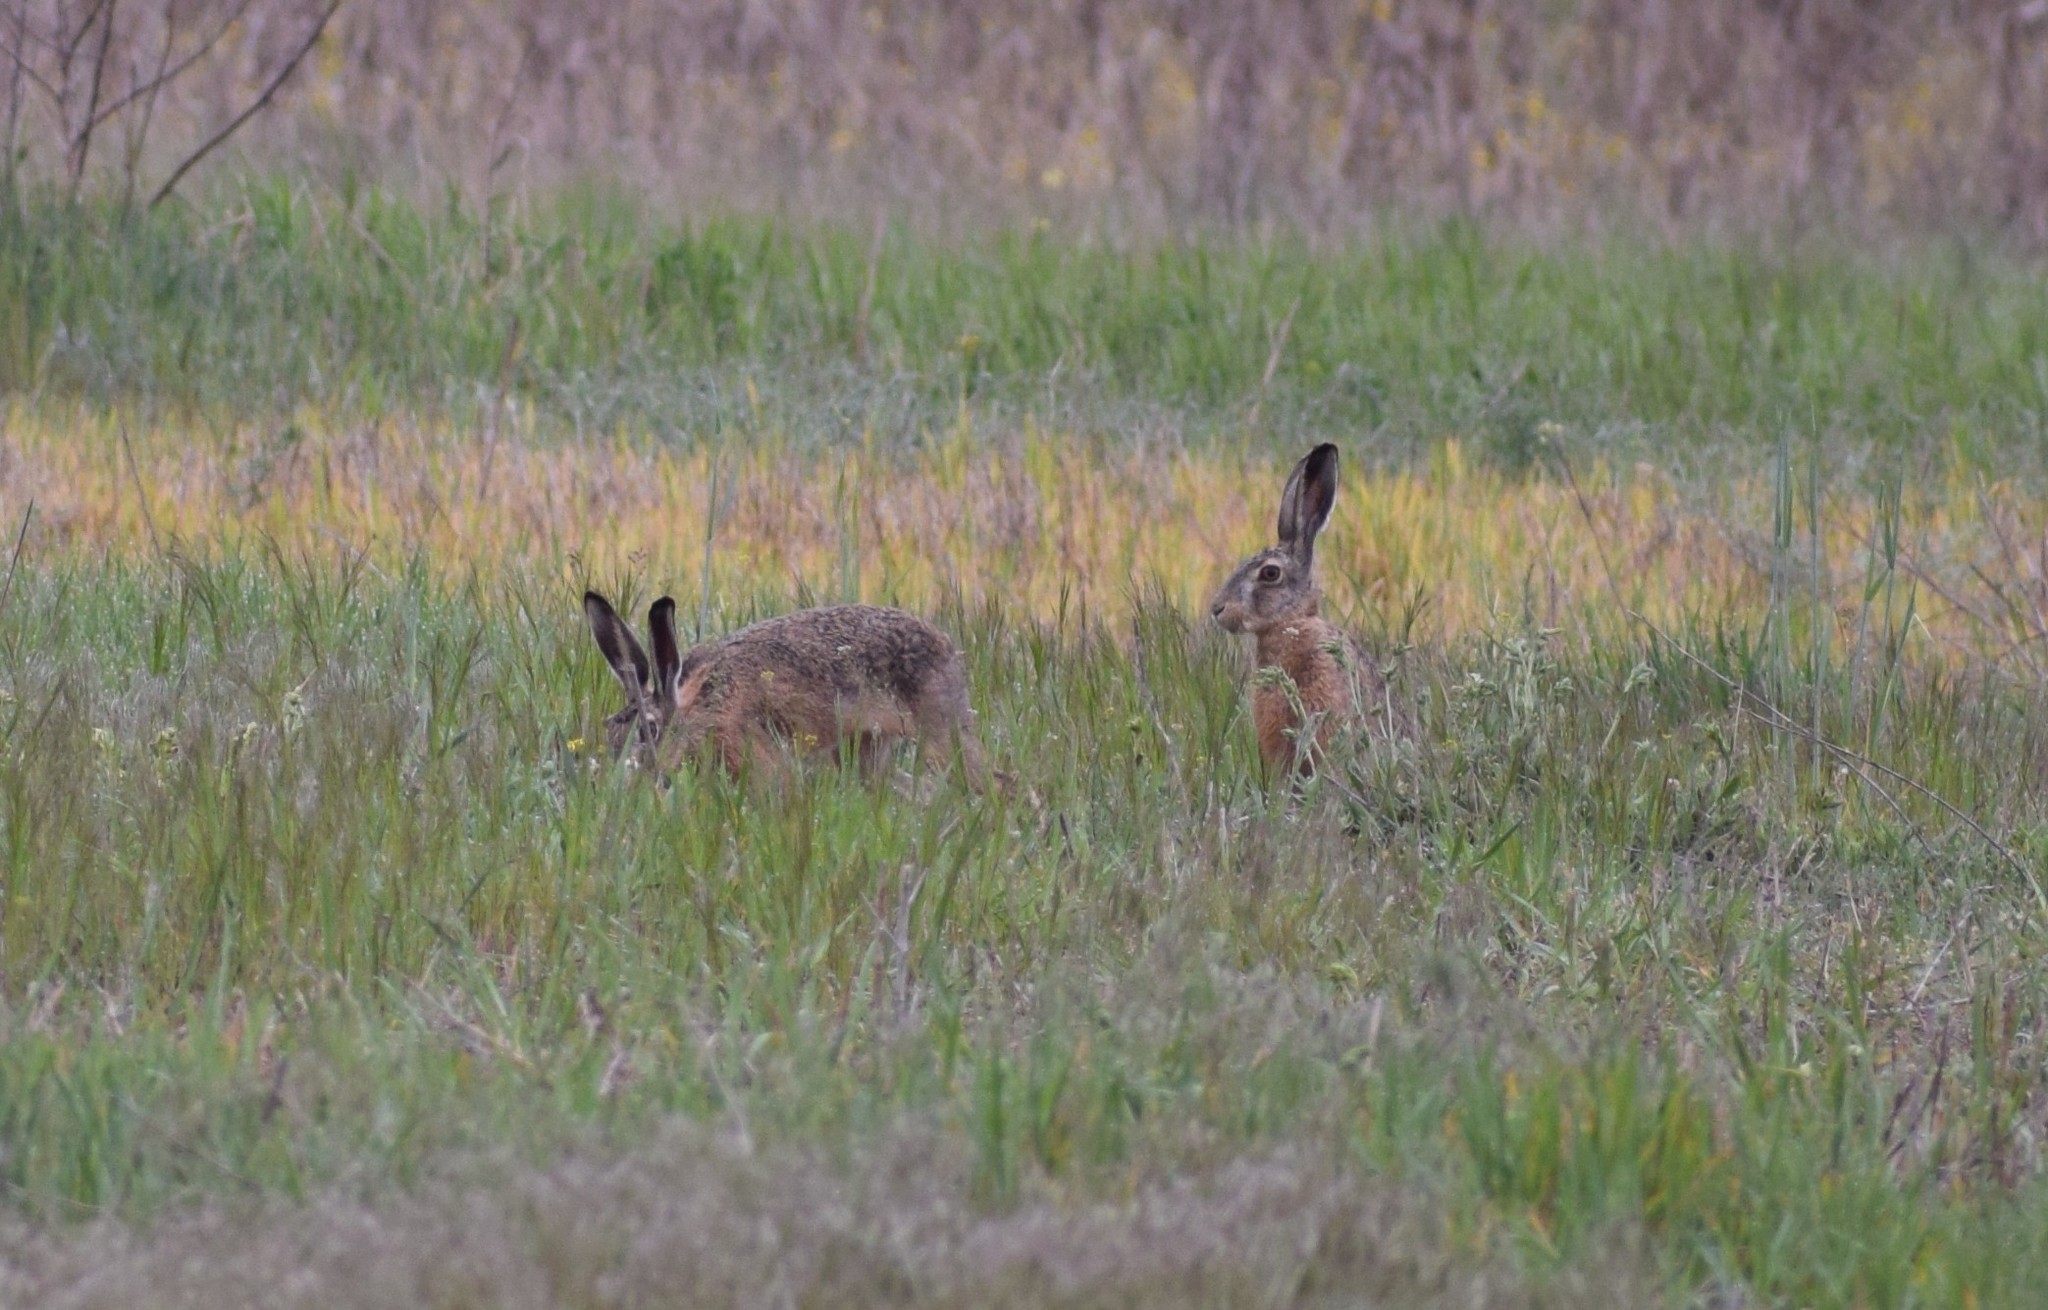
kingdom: Animalia
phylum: Chordata
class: Mammalia
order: Lagomorpha
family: Leporidae
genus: Lepus
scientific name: Lepus europaeus
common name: European hare
